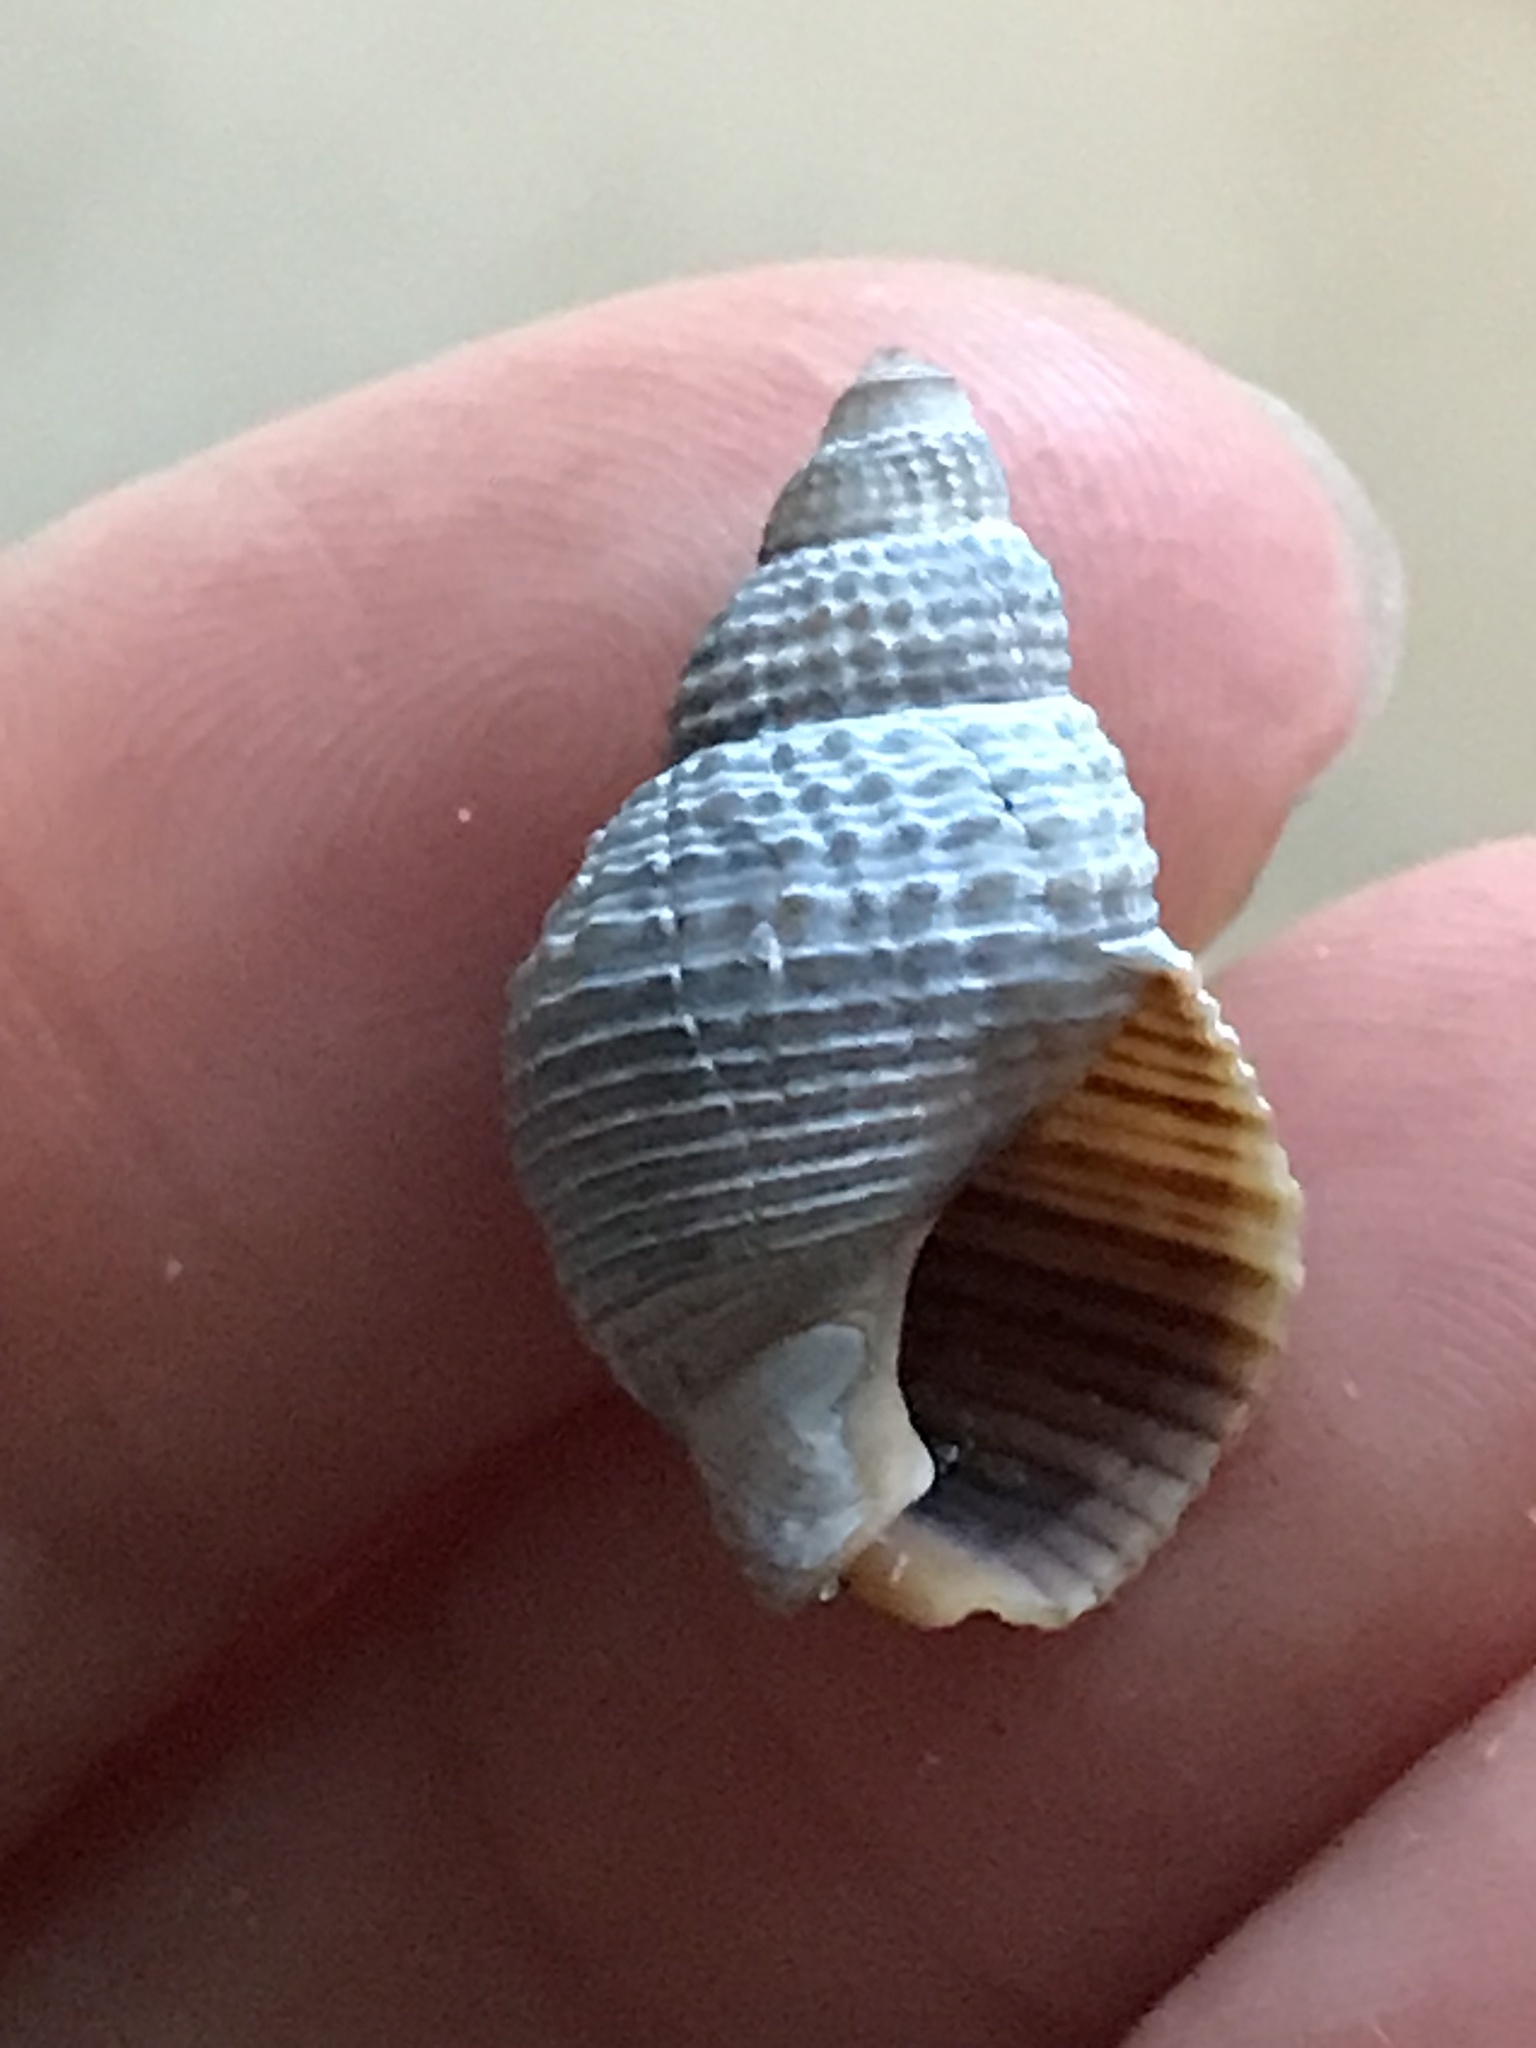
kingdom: Animalia
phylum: Mollusca
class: Gastropoda
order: Neogastropoda
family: Nassariidae
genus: Caesia
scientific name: Caesia fossata
